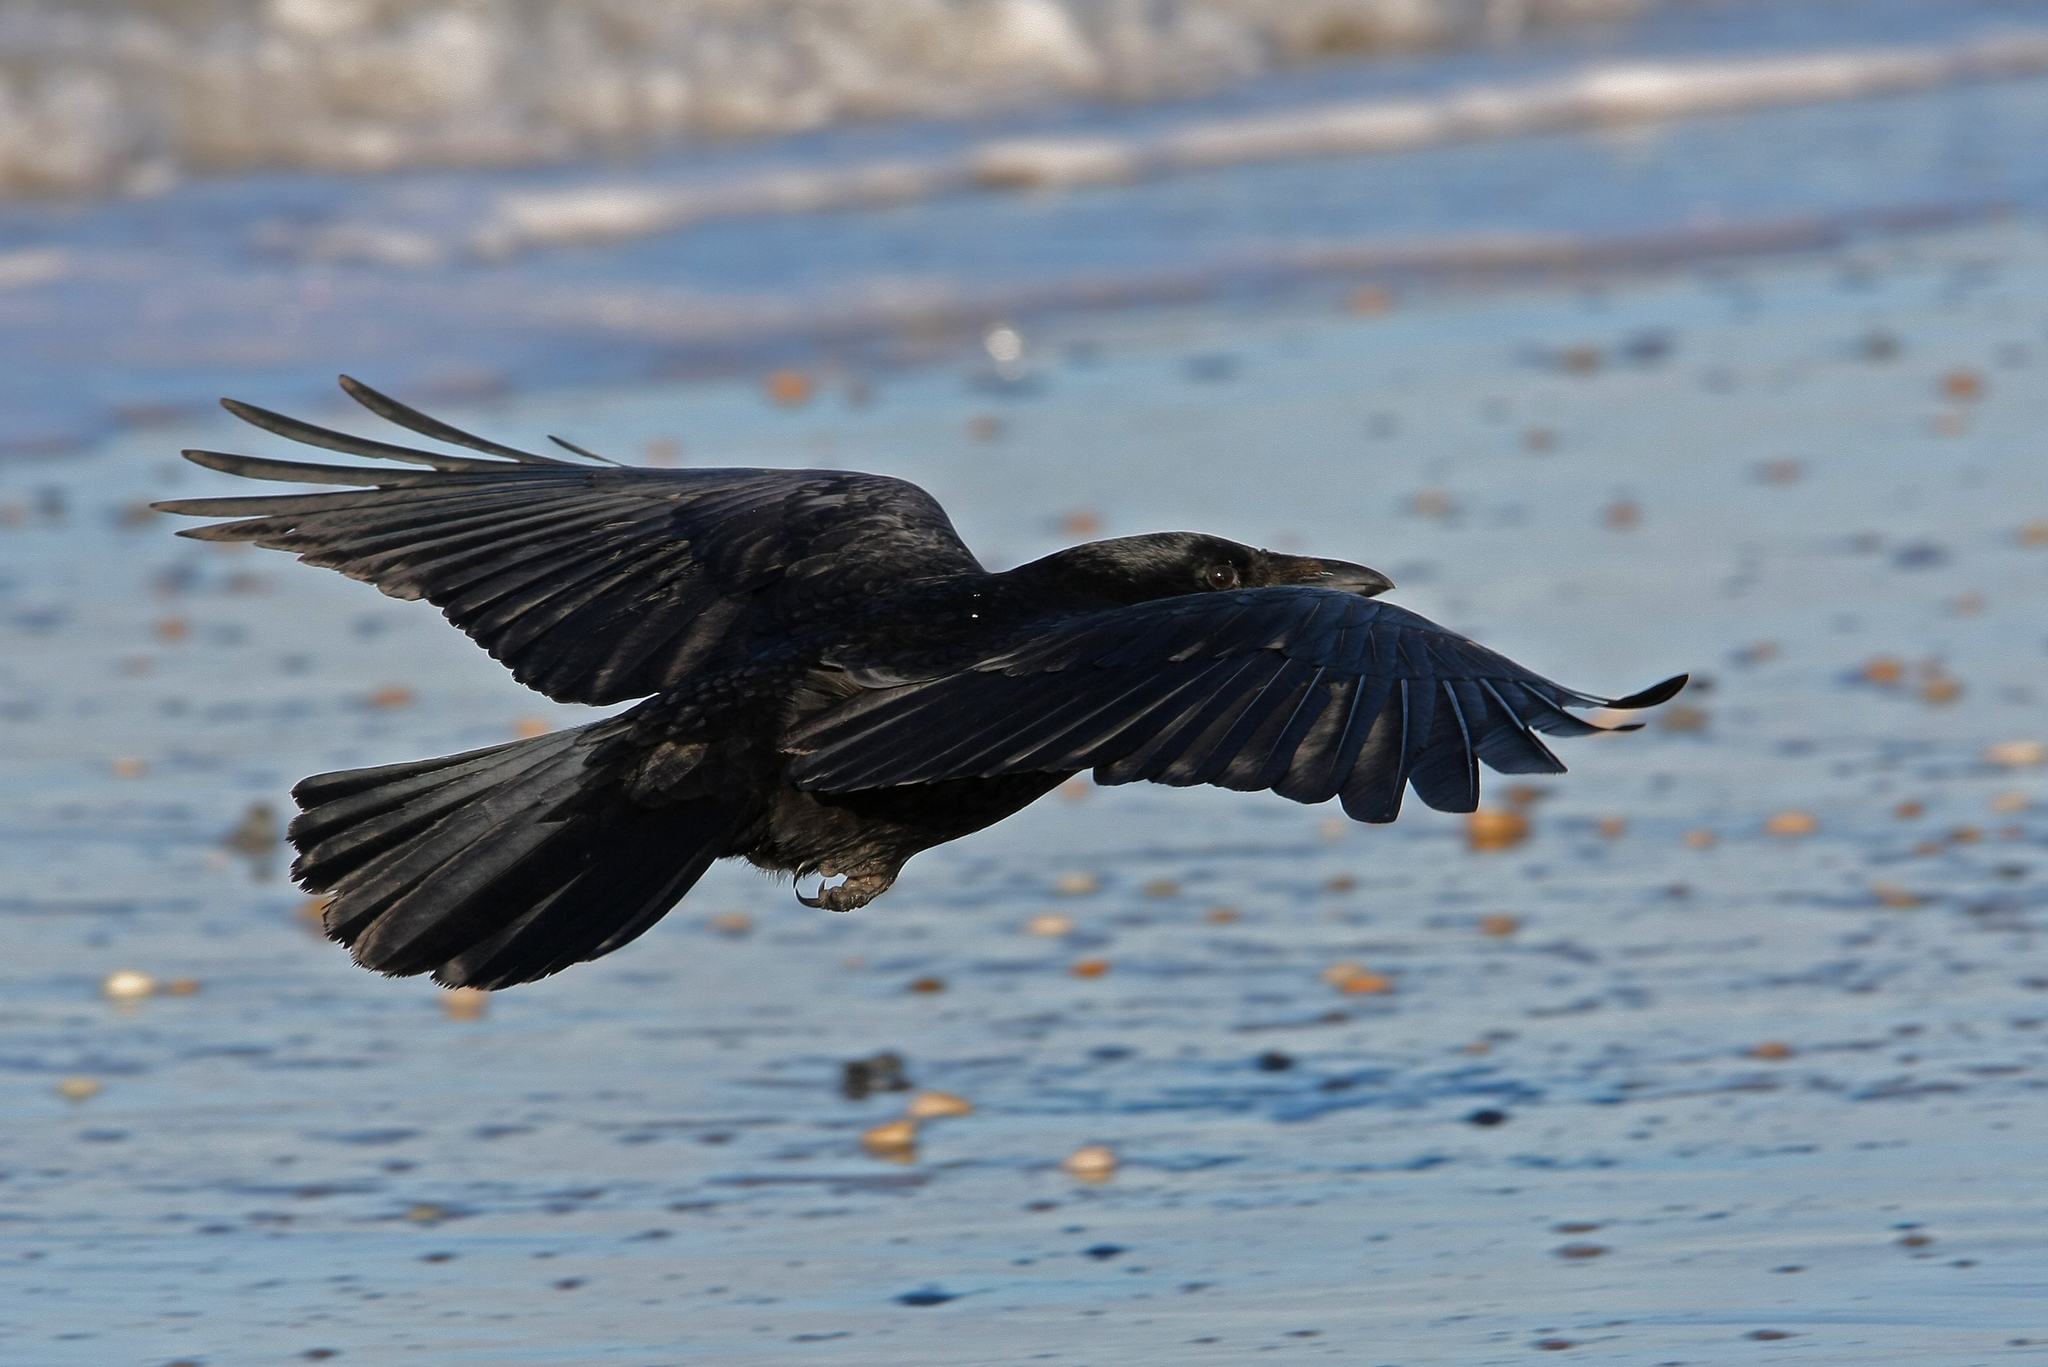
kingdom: Animalia
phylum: Chordata
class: Aves
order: Passeriformes
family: Corvidae
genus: Corvus
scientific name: Corvus corone
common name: Carrion crow
